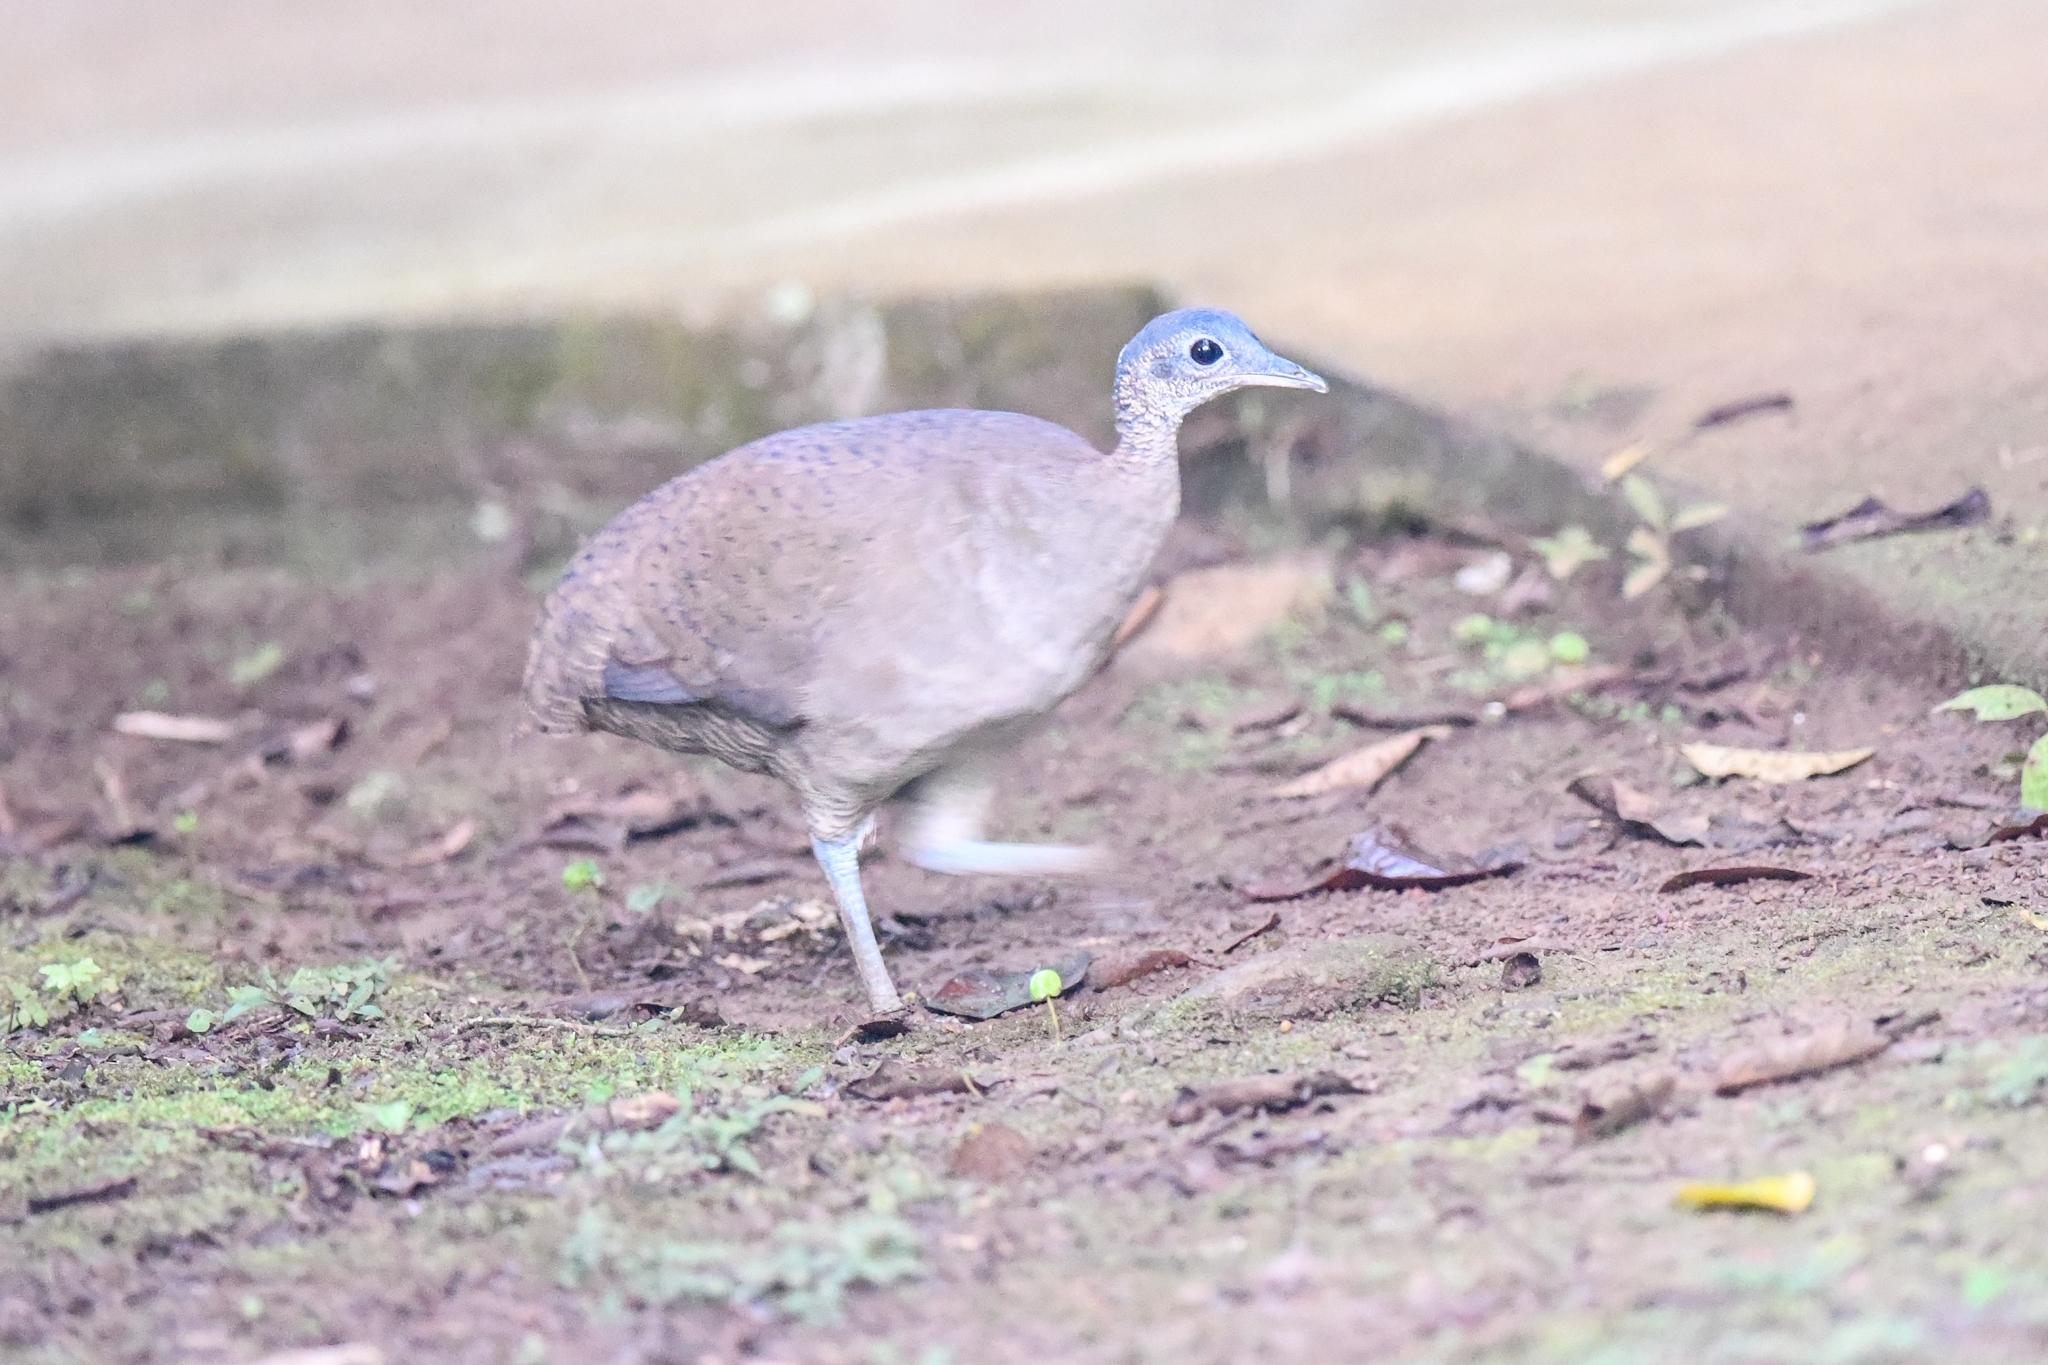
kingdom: Animalia
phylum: Chordata
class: Aves
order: Tinamiformes
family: Tinamidae
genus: Tinamus
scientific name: Tinamus major
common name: Great tinamou
